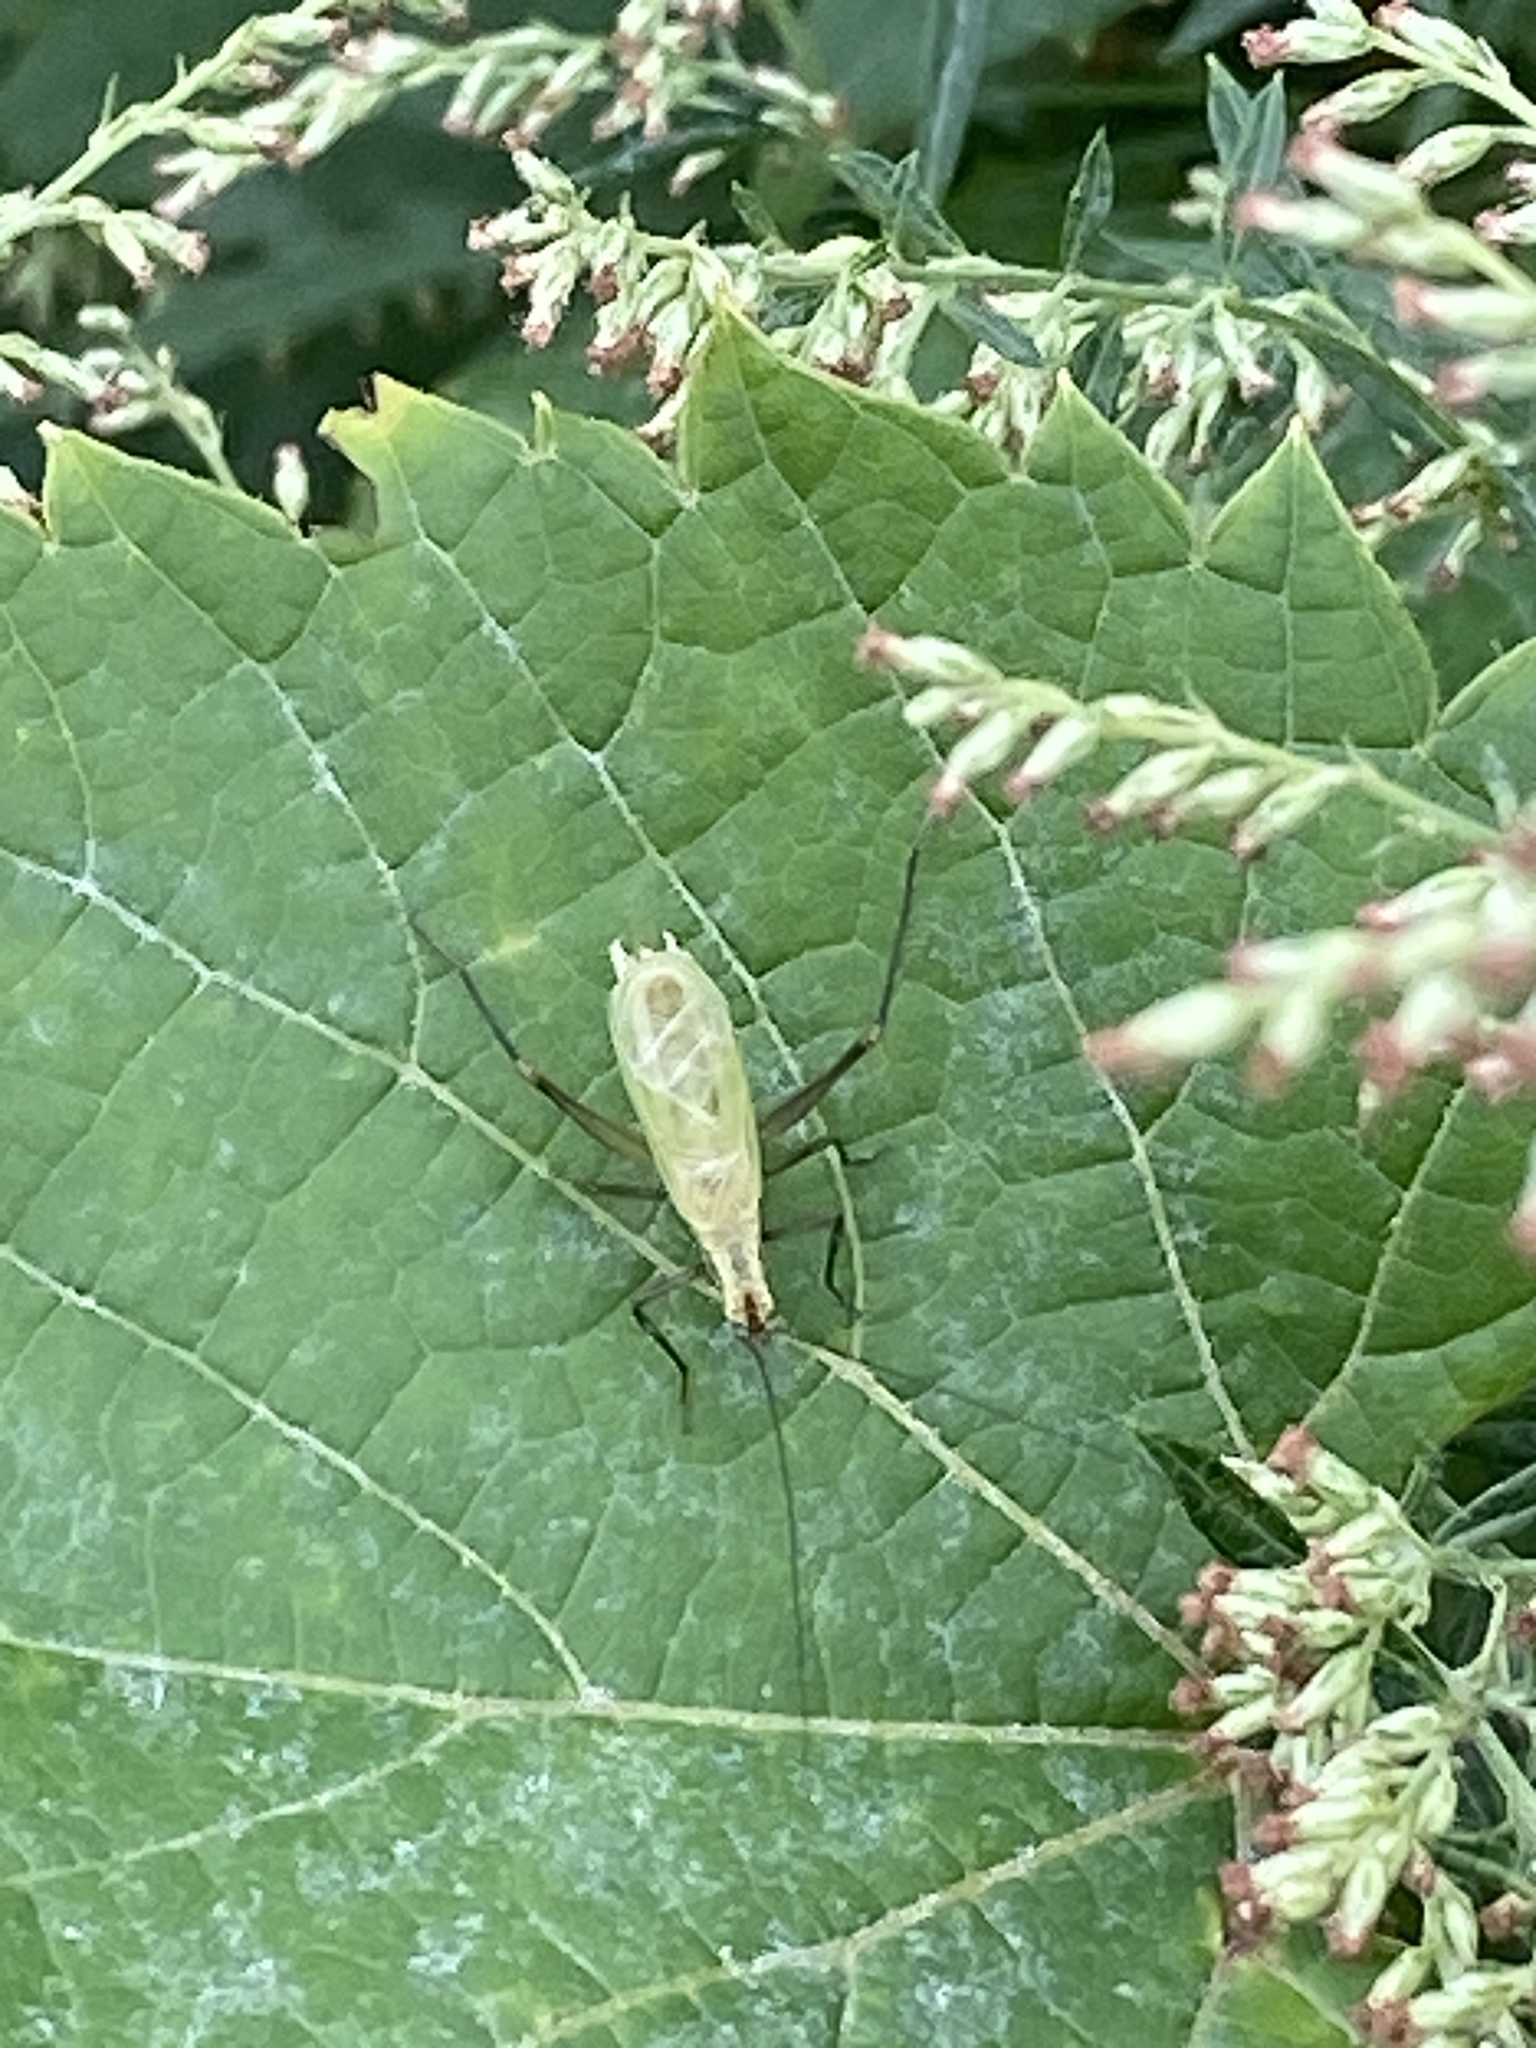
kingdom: Animalia
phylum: Arthropoda
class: Insecta
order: Orthoptera
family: Gryllidae
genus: Oecanthus
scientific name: Oecanthus nigricornis
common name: Black-horned tree cricket
